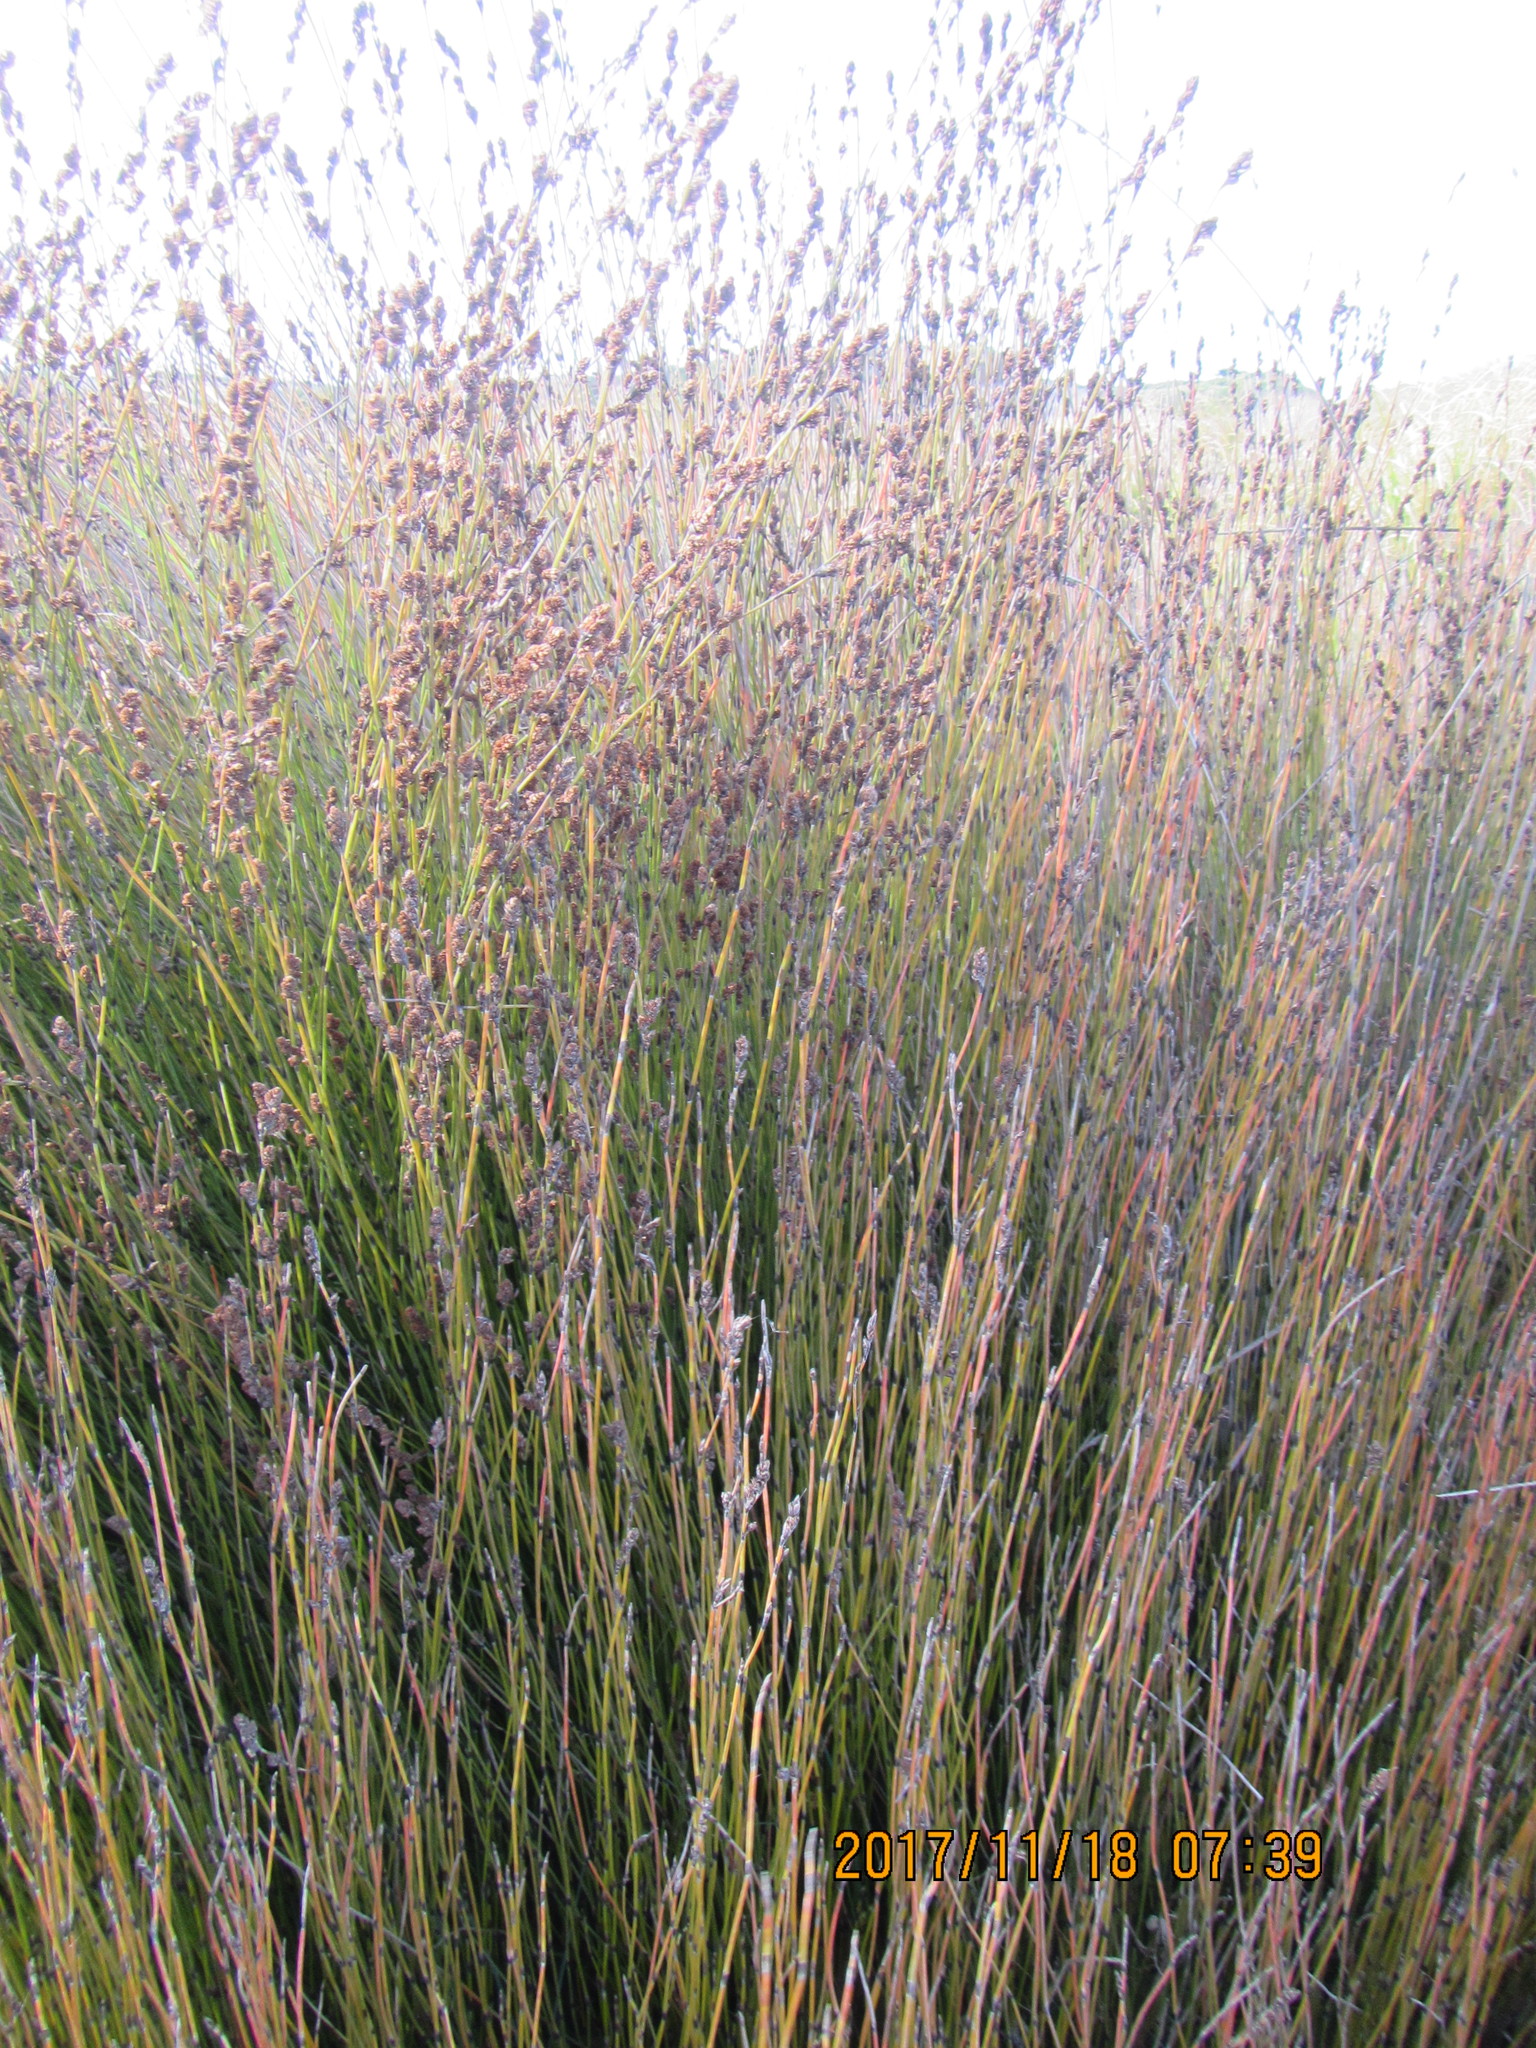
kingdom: Plantae
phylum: Tracheophyta
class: Liliopsida
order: Poales
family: Restionaceae
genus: Apodasmia
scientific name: Apodasmia similis
